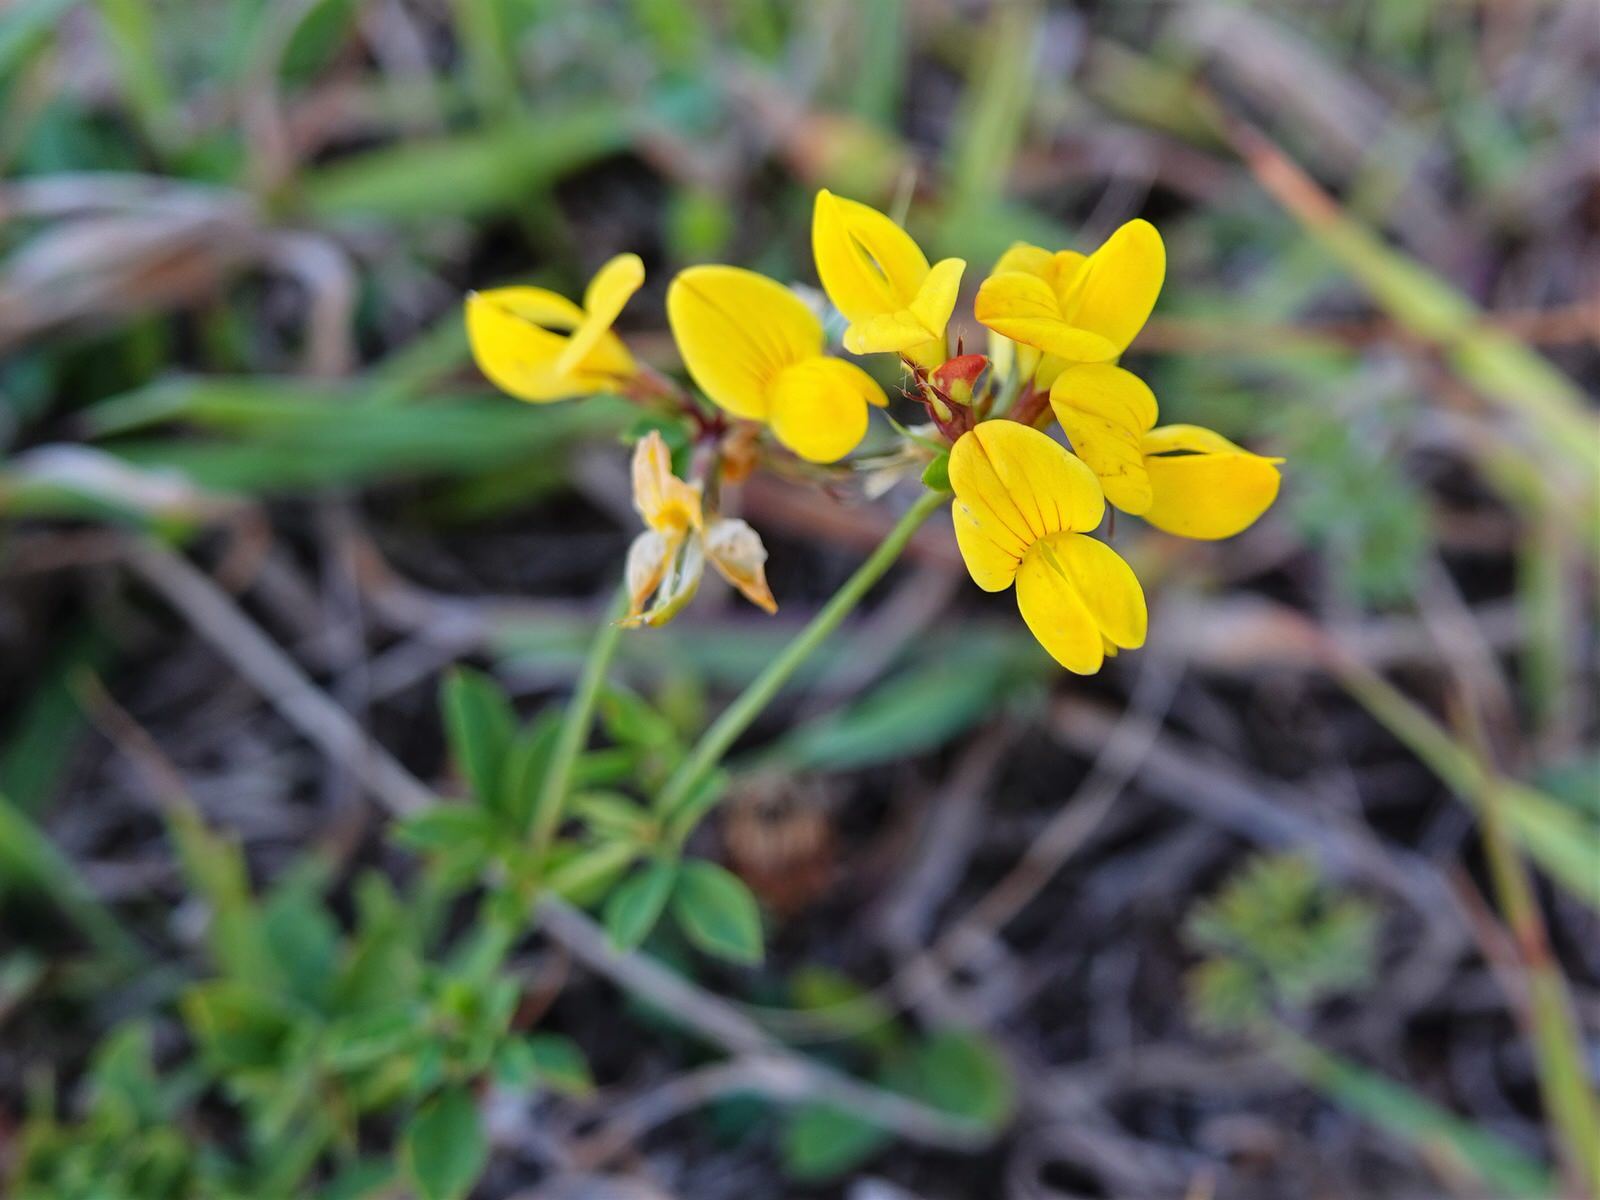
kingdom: Plantae
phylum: Tracheophyta
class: Magnoliopsida
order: Fabales
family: Fabaceae
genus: Lotus
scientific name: Lotus pedunculatus
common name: Greater birdsfoot-trefoil
